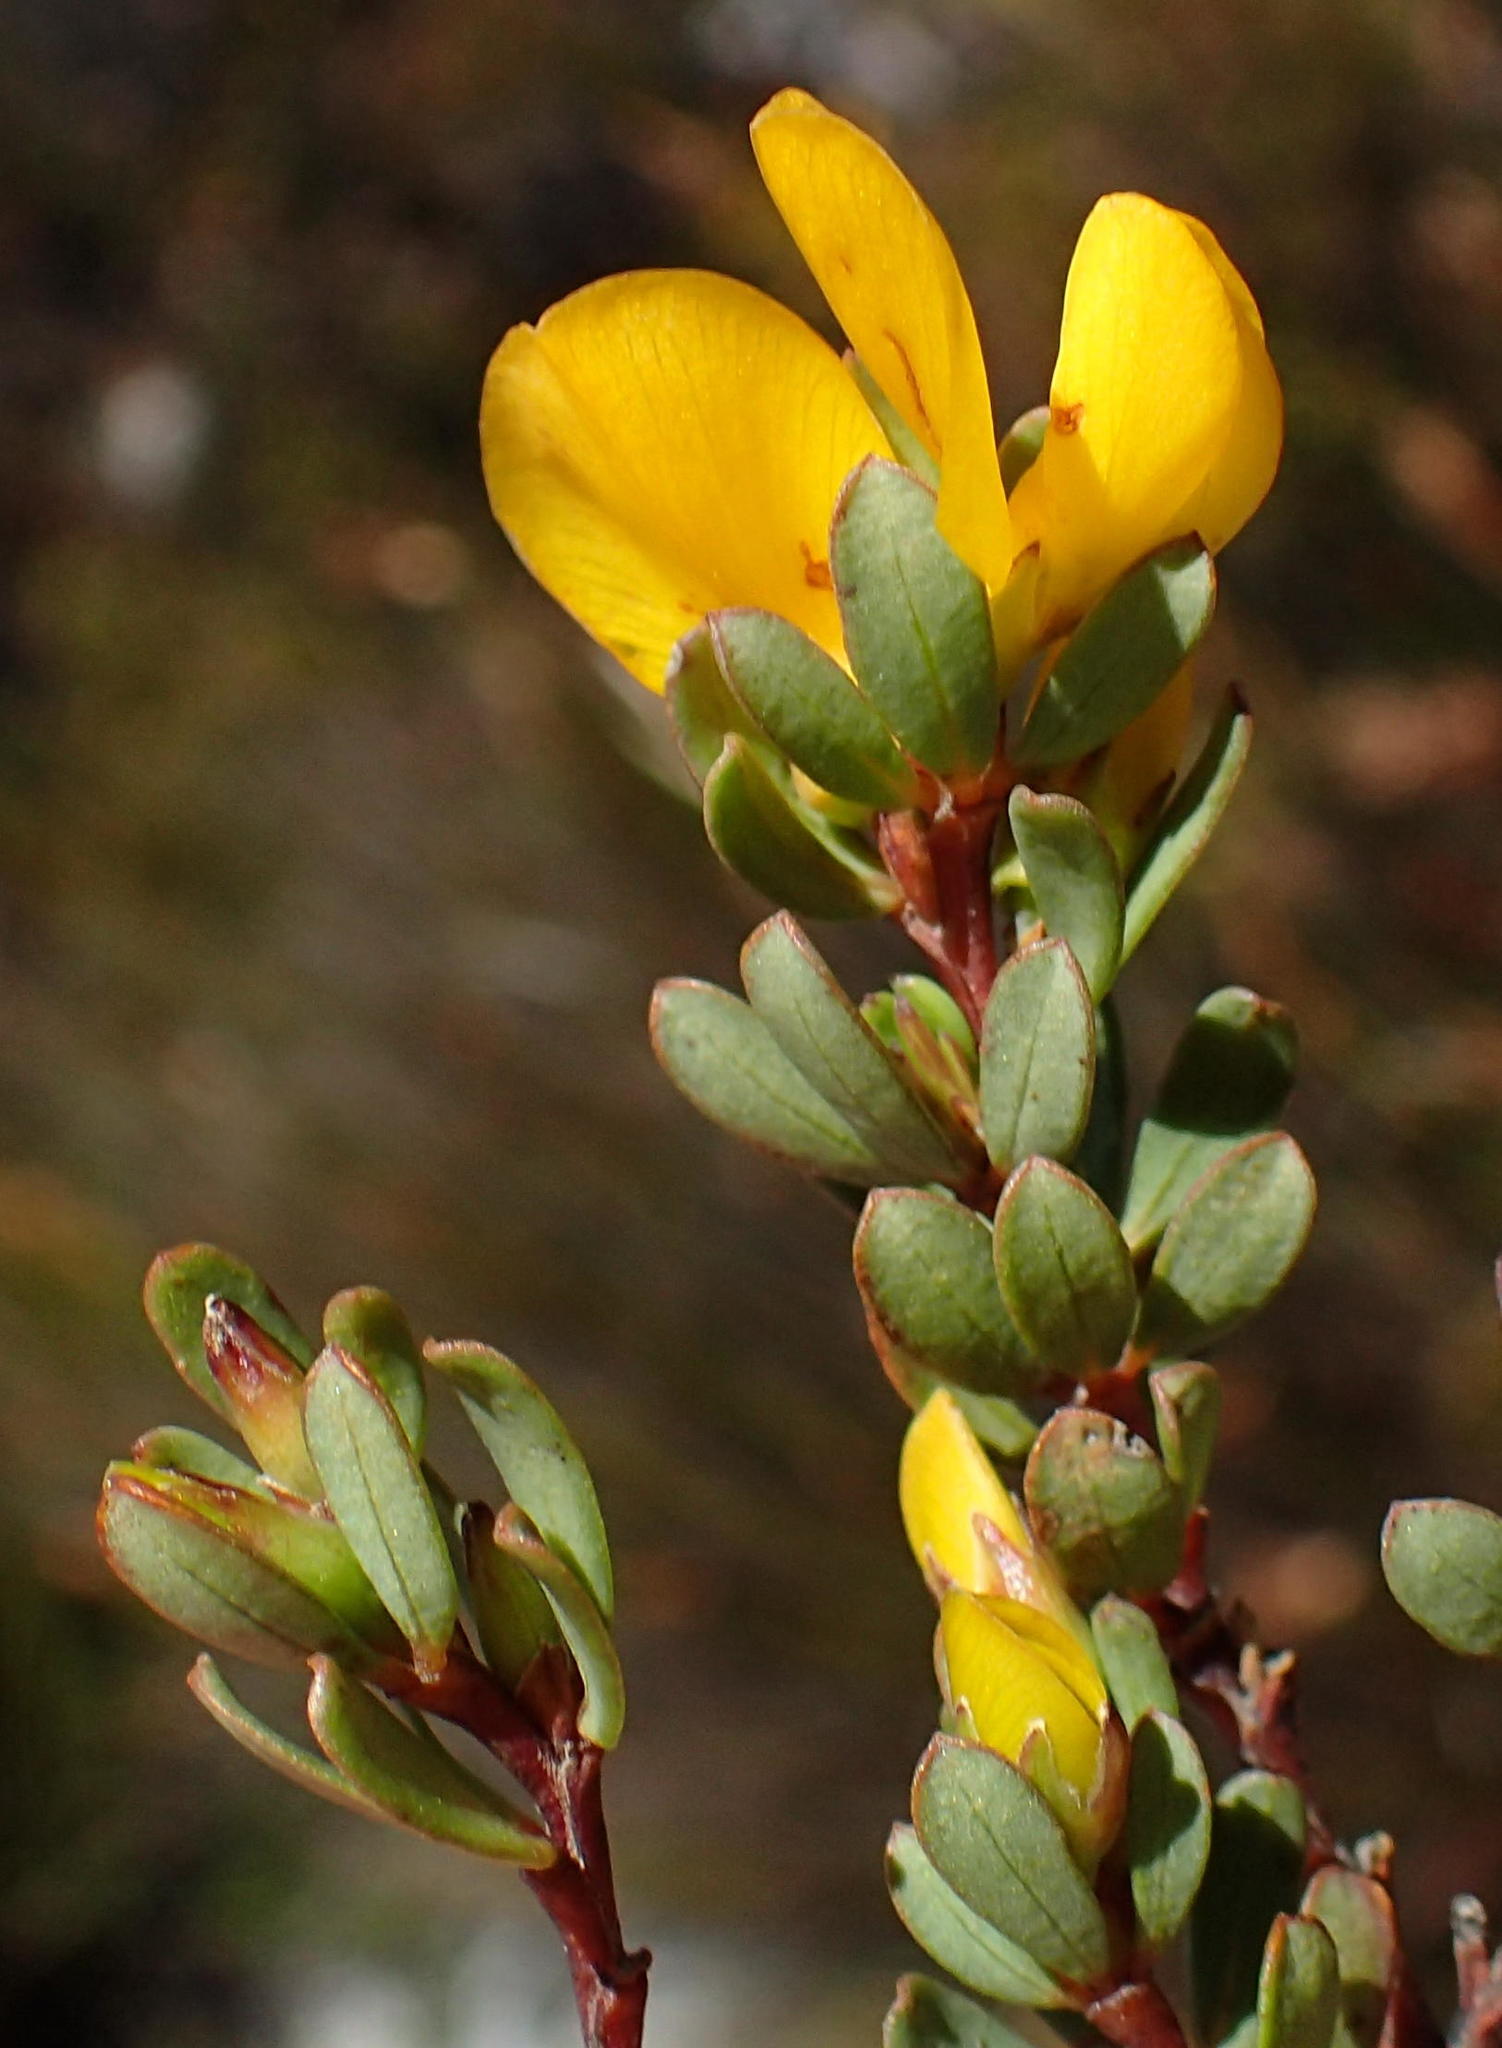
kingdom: Plantae
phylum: Tracheophyta
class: Magnoliopsida
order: Fabales
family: Fabaceae
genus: Cyclopia
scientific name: Cyclopia burtonii
